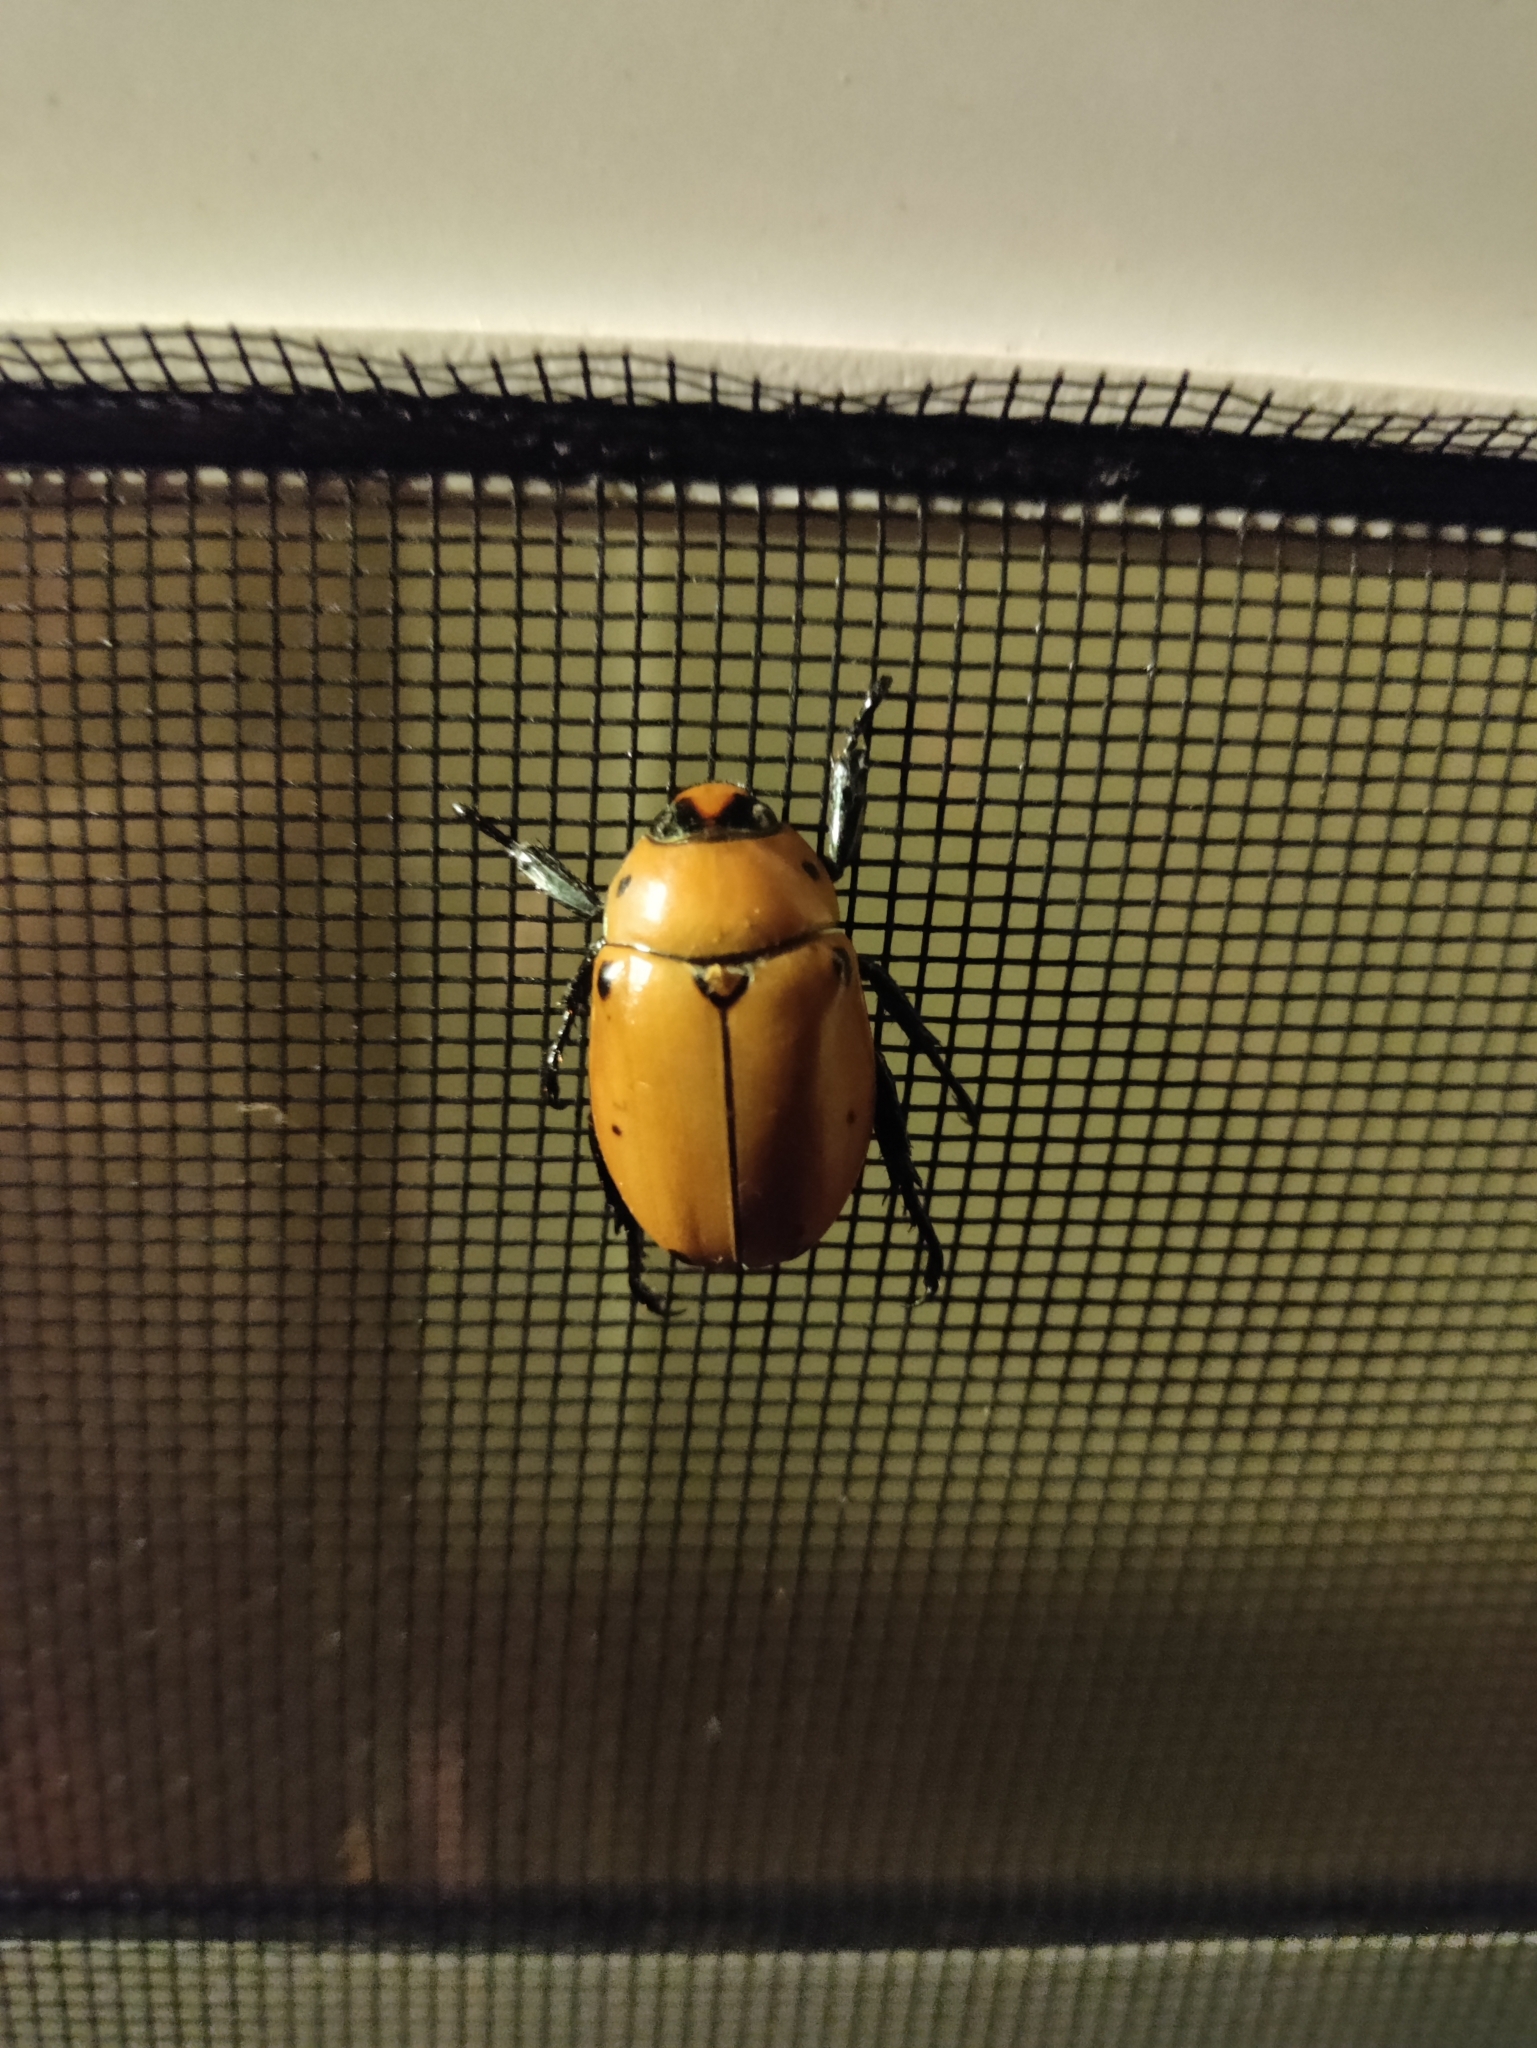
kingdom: Animalia
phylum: Arthropoda
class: Insecta
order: Coleoptera
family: Scarabaeidae
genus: Pelidnota
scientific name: Pelidnota punctata
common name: Grapevine beetle
